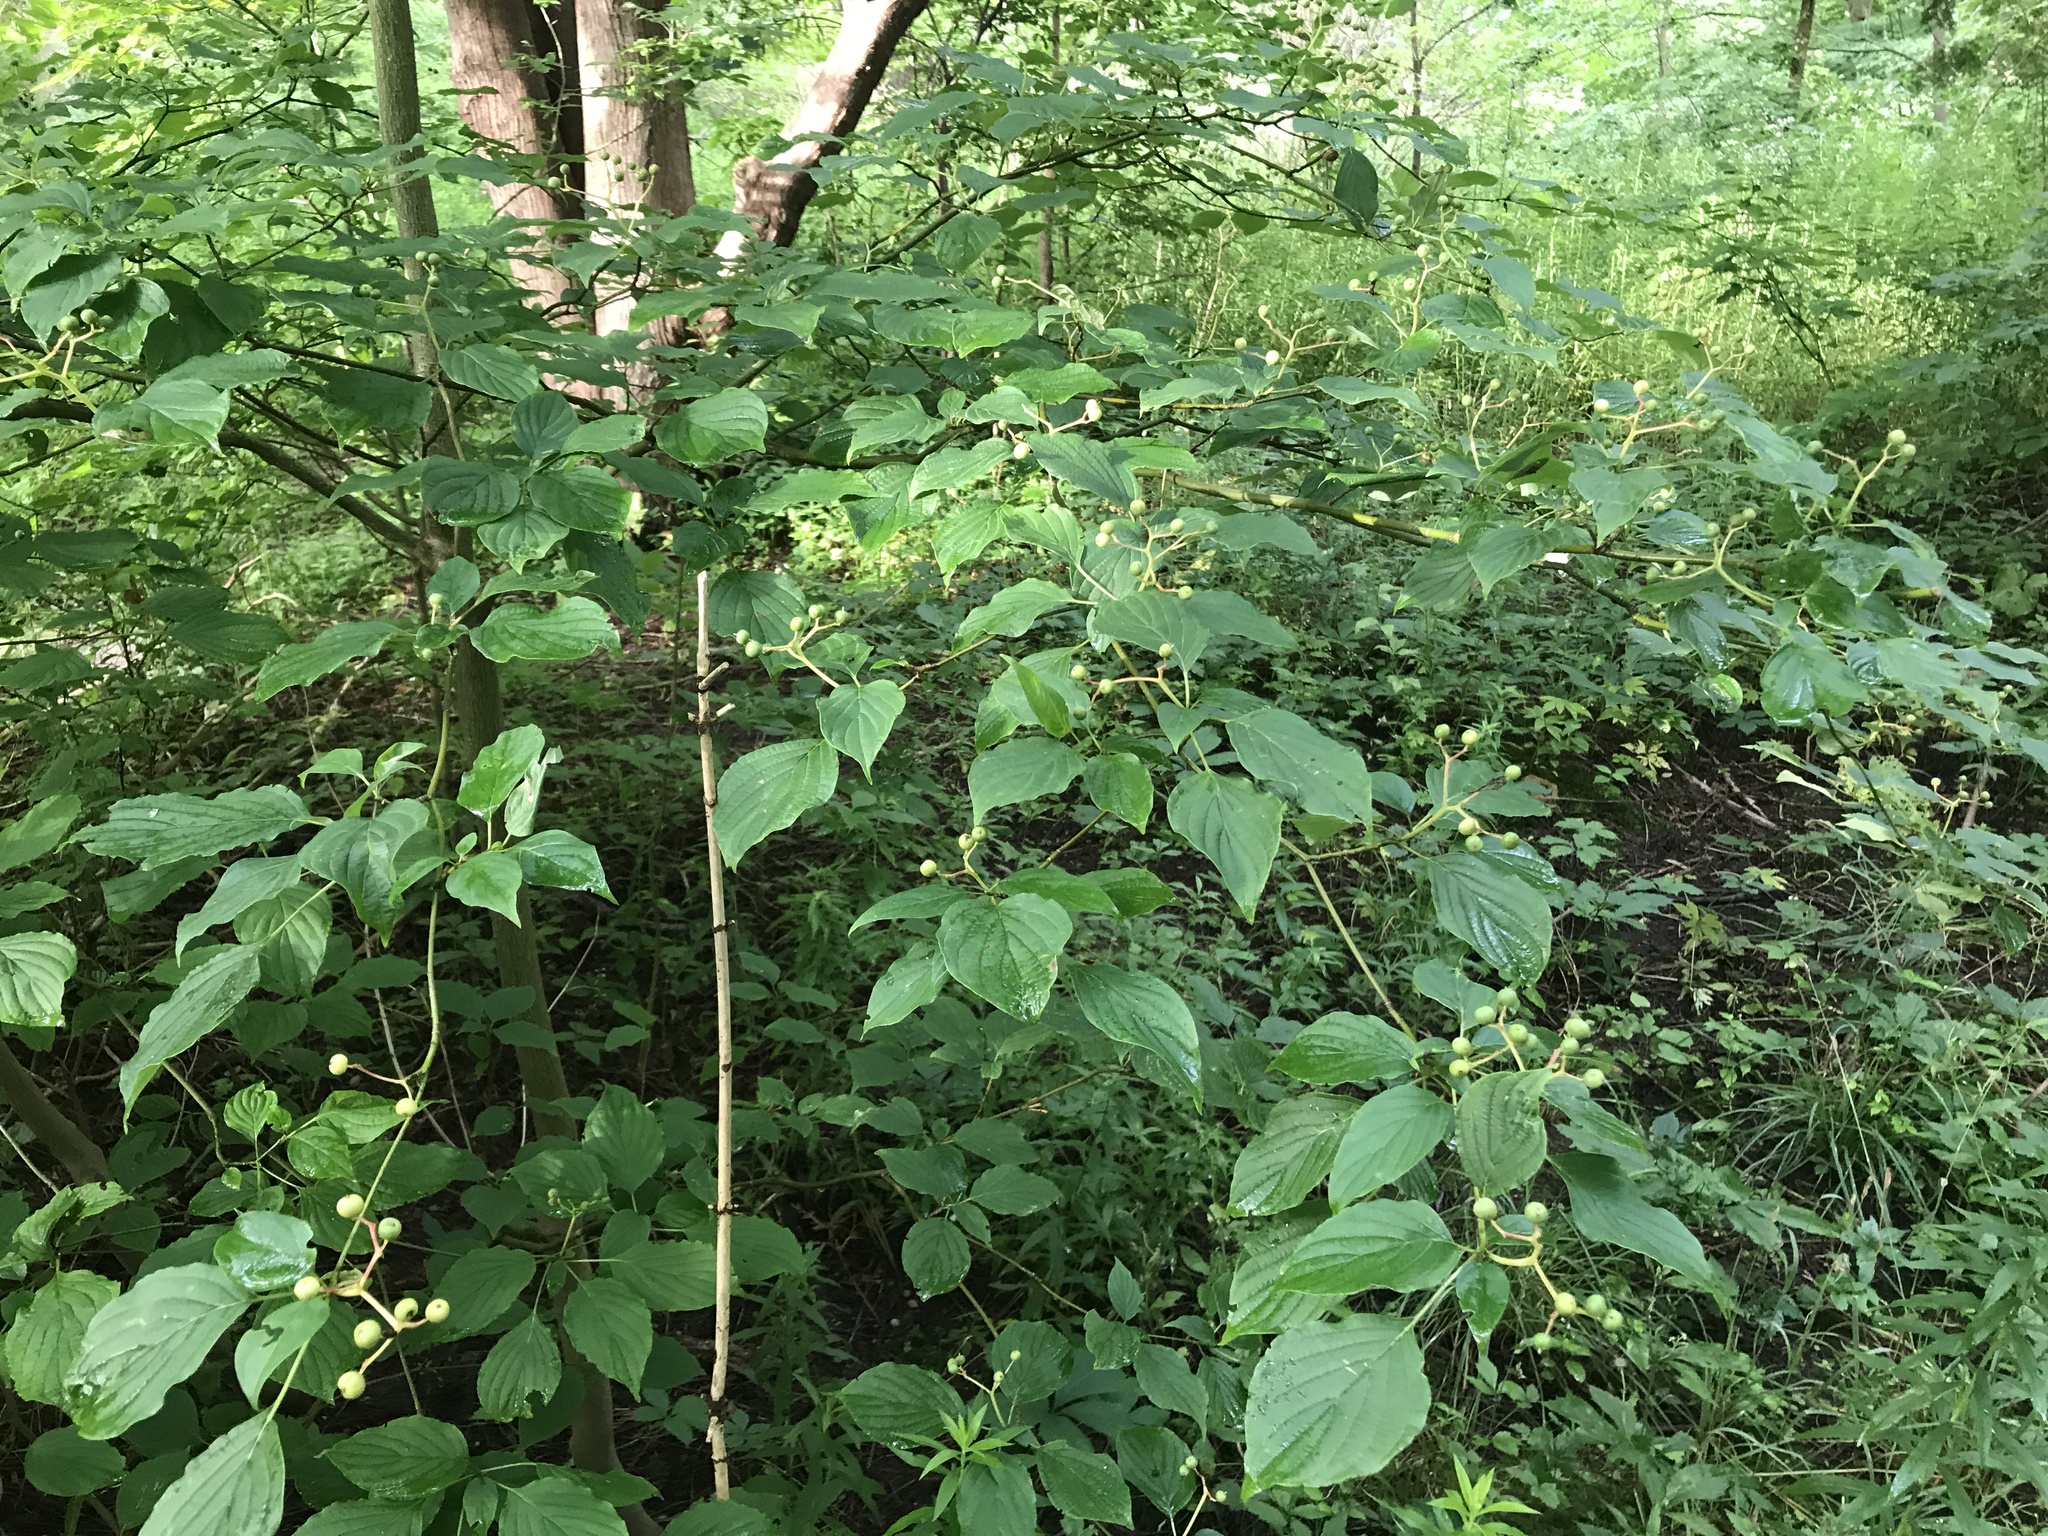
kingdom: Plantae
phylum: Tracheophyta
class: Magnoliopsida
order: Cornales
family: Cornaceae
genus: Cornus
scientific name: Cornus alternifolia
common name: Pagoda dogwood
